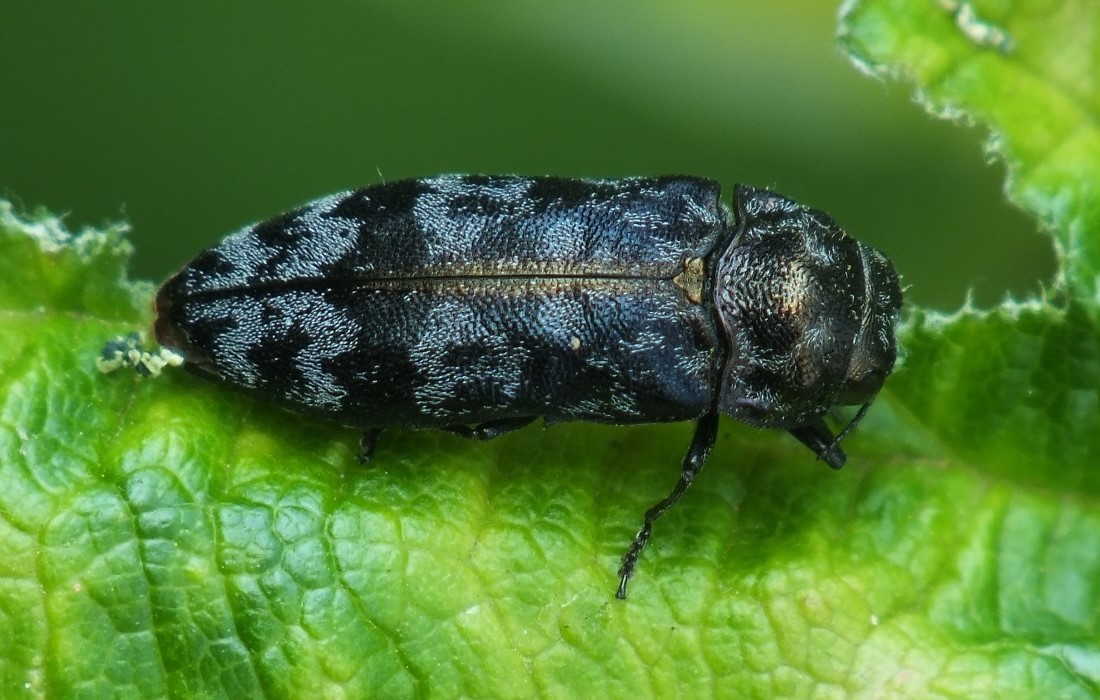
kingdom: Animalia
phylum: Arthropoda
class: Insecta
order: Coleoptera
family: Buprestidae
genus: Coraebus
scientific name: Coraebus rubi
